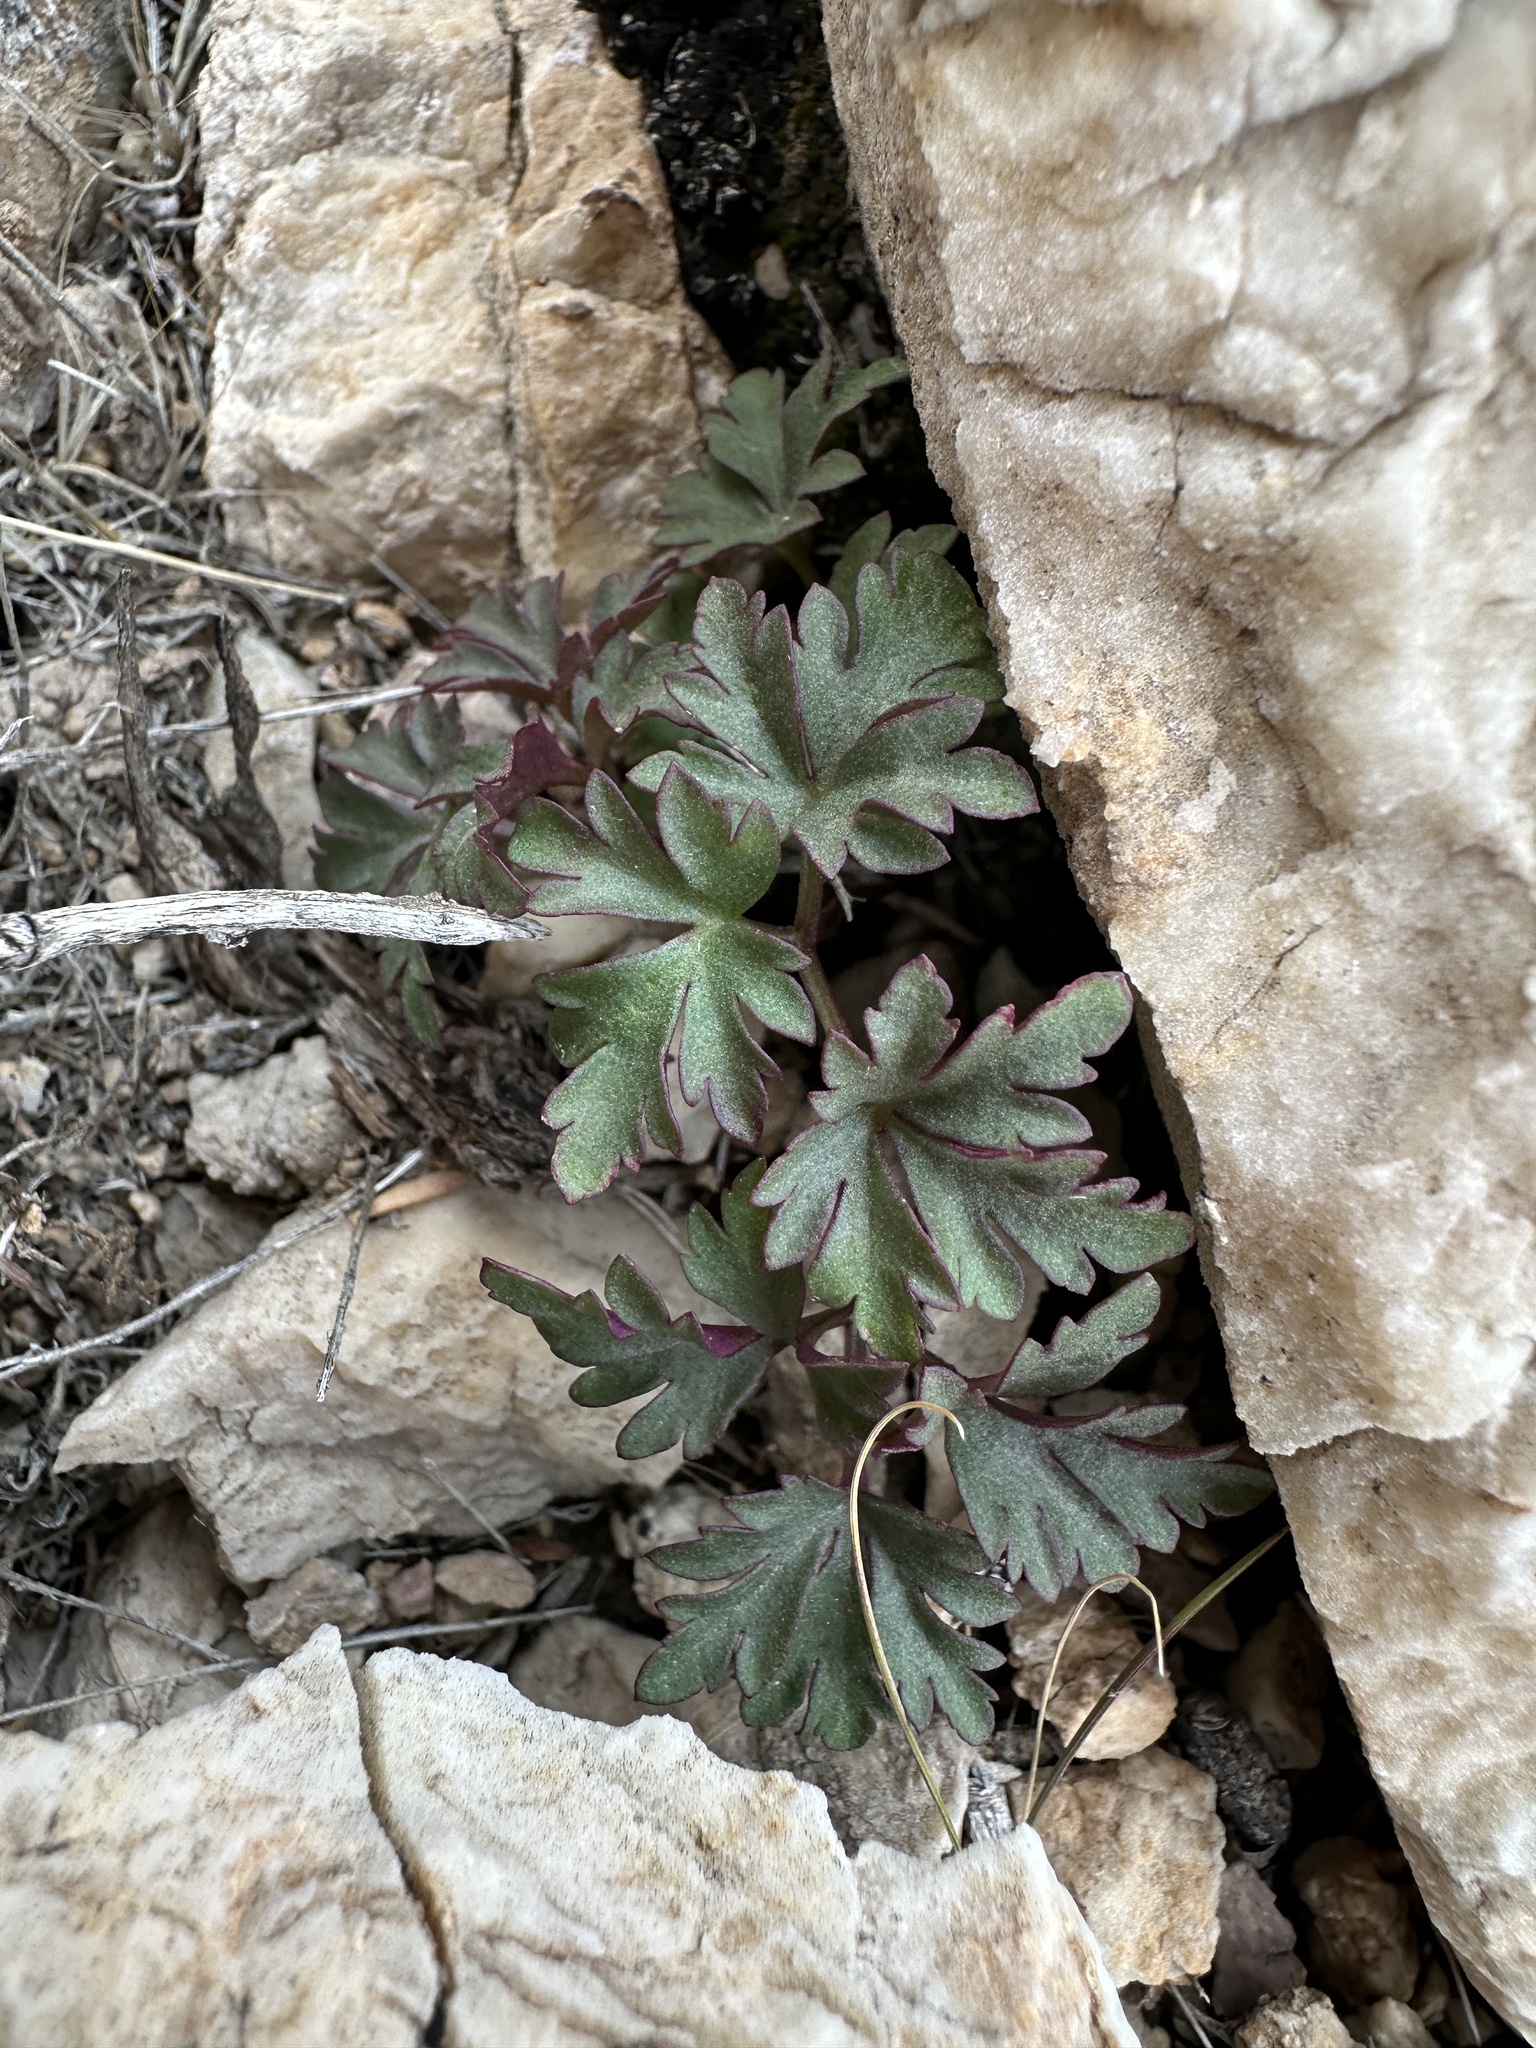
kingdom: Plantae
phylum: Tracheophyta
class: Magnoliopsida
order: Ranunculales
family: Ranunculaceae
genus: Anemone
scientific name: Anemone tuberosa
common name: Desert anemone
